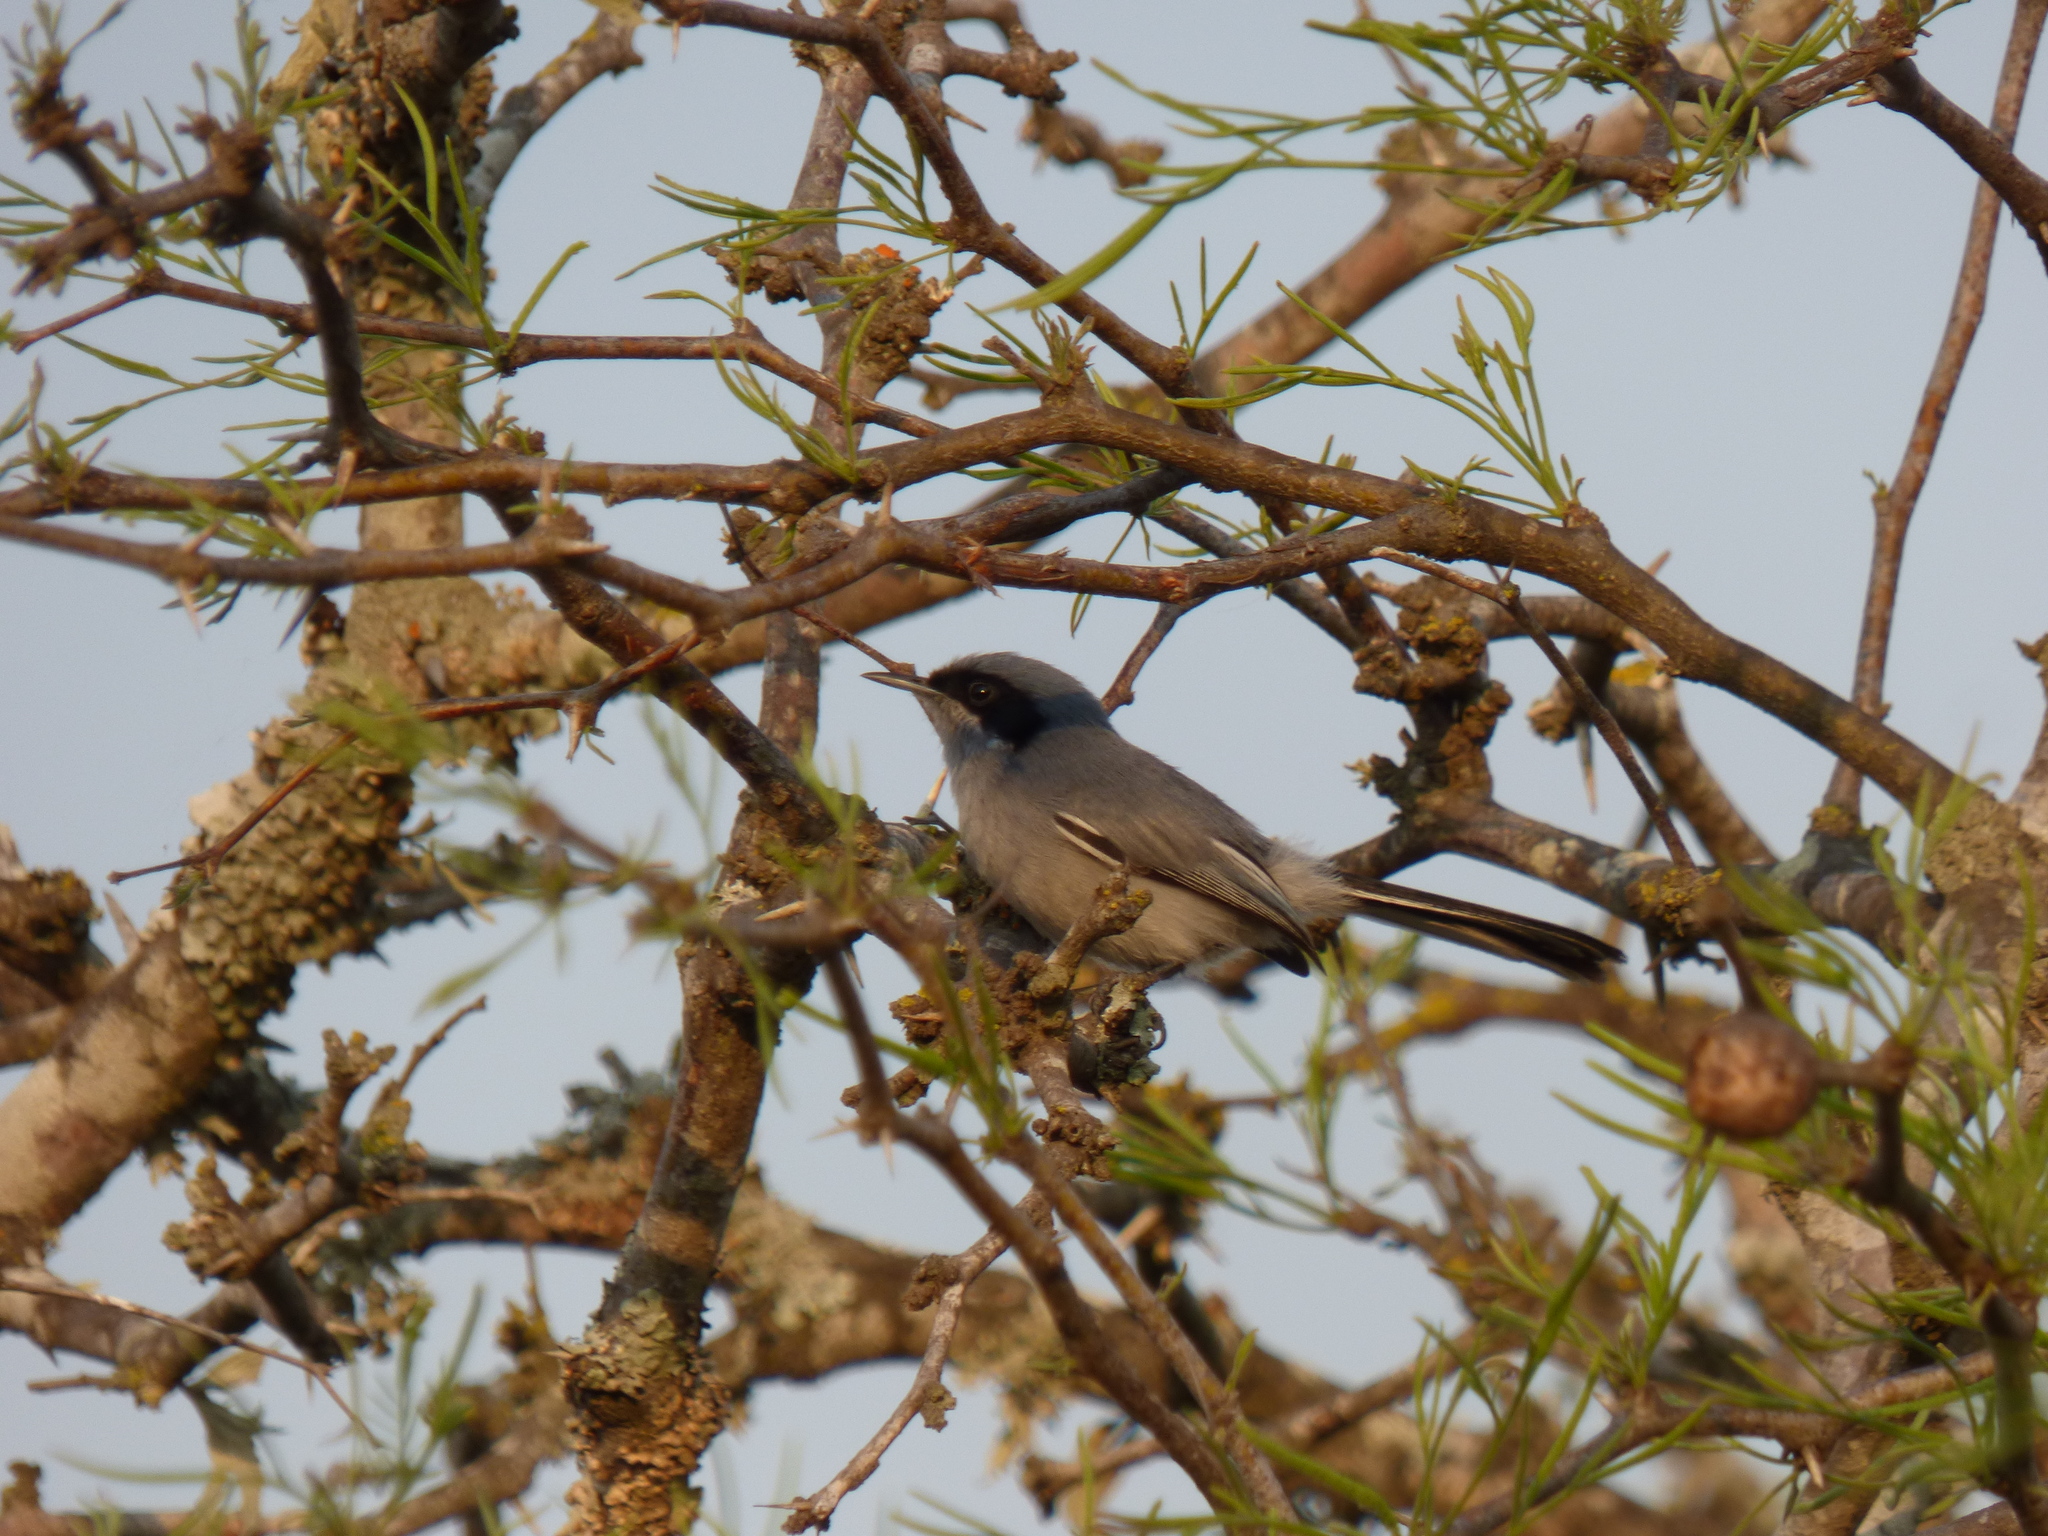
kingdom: Animalia
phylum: Chordata
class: Aves
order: Passeriformes
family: Polioptilidae
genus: Polioptila
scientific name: Polioptila dumicola
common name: Masked gnatcatcher
